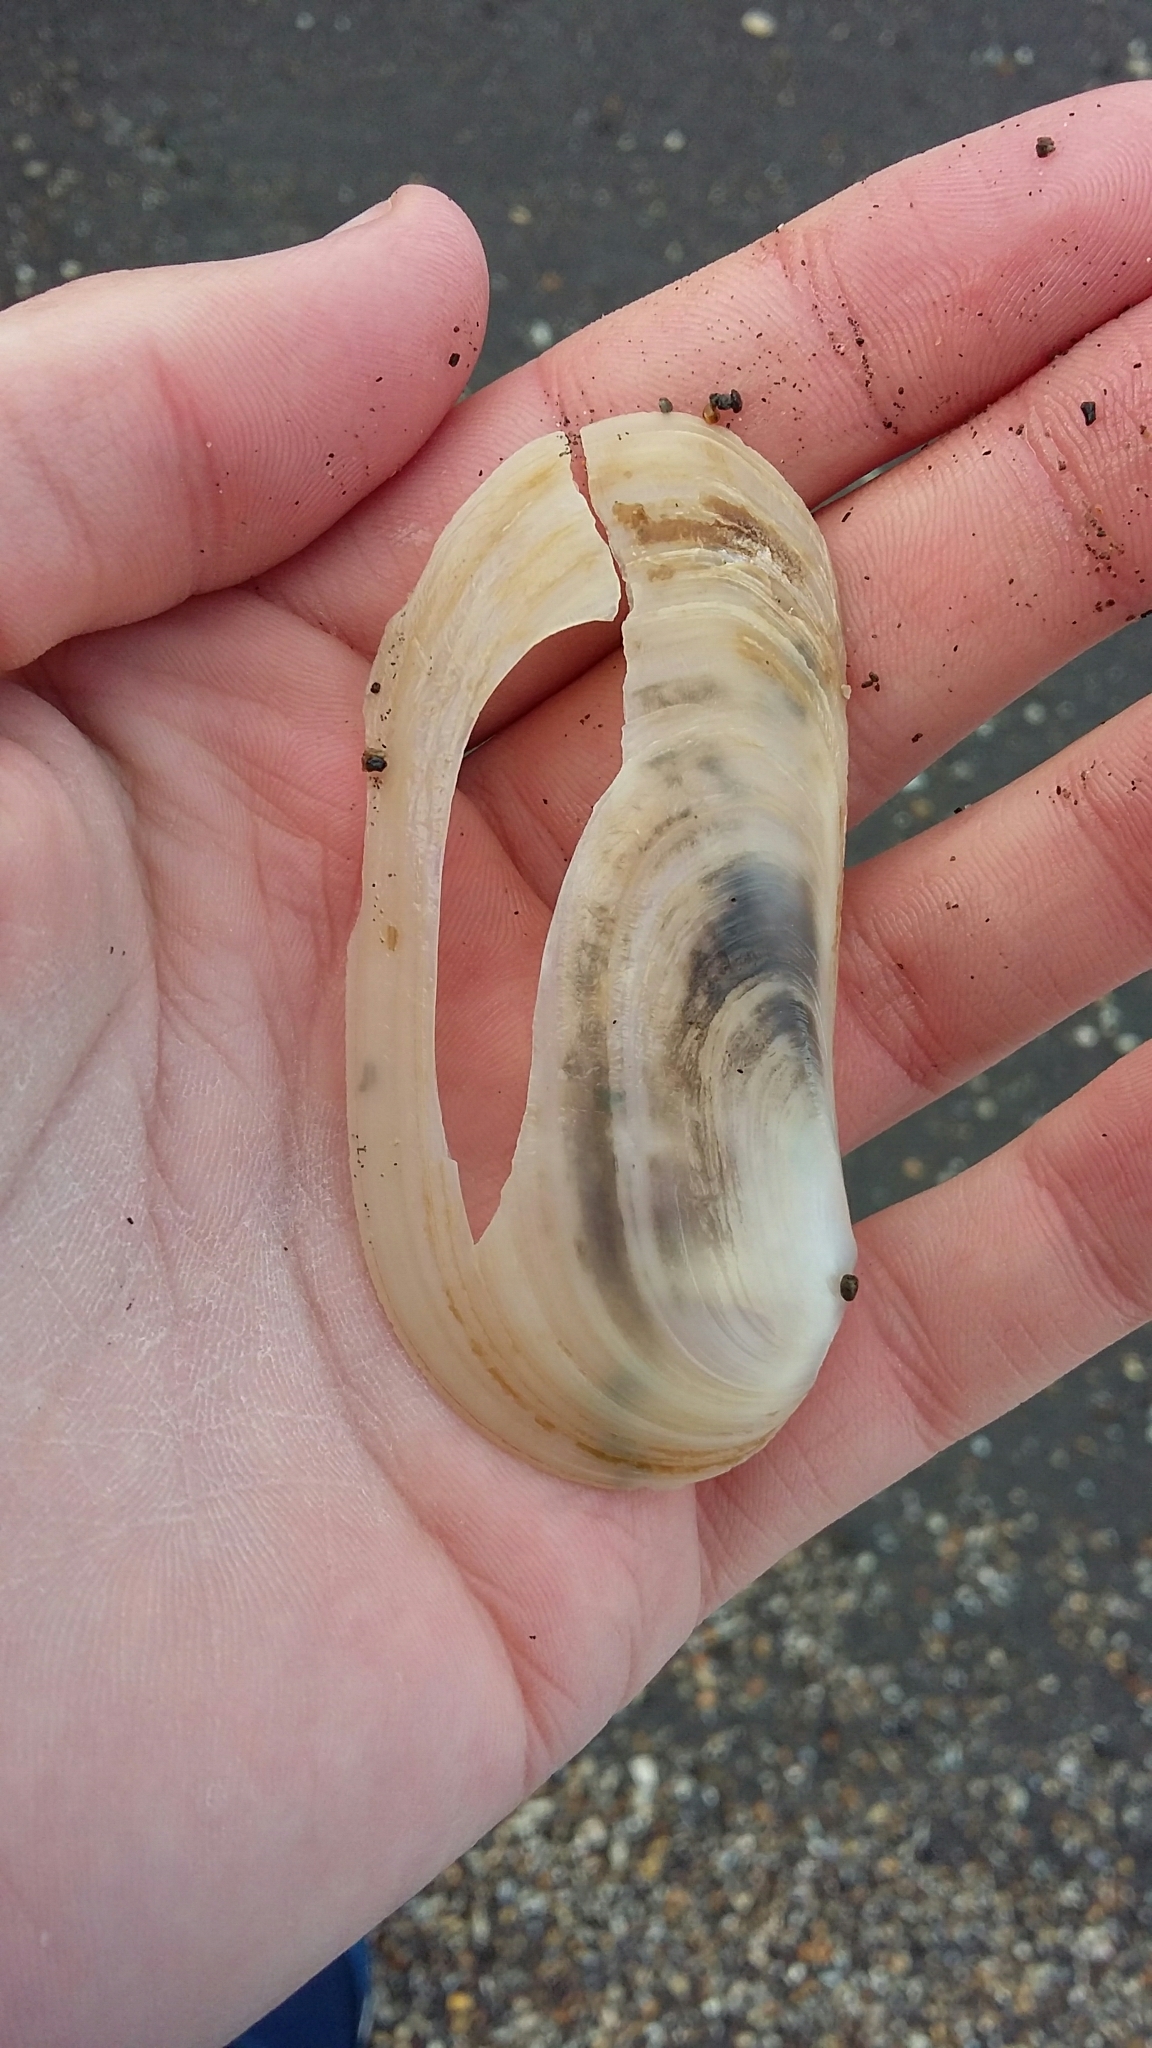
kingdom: Animalia
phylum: Mollusca
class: Bivalvia
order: Venerida
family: Mactridae
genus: Zenatia
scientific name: Zenatia acinaces
